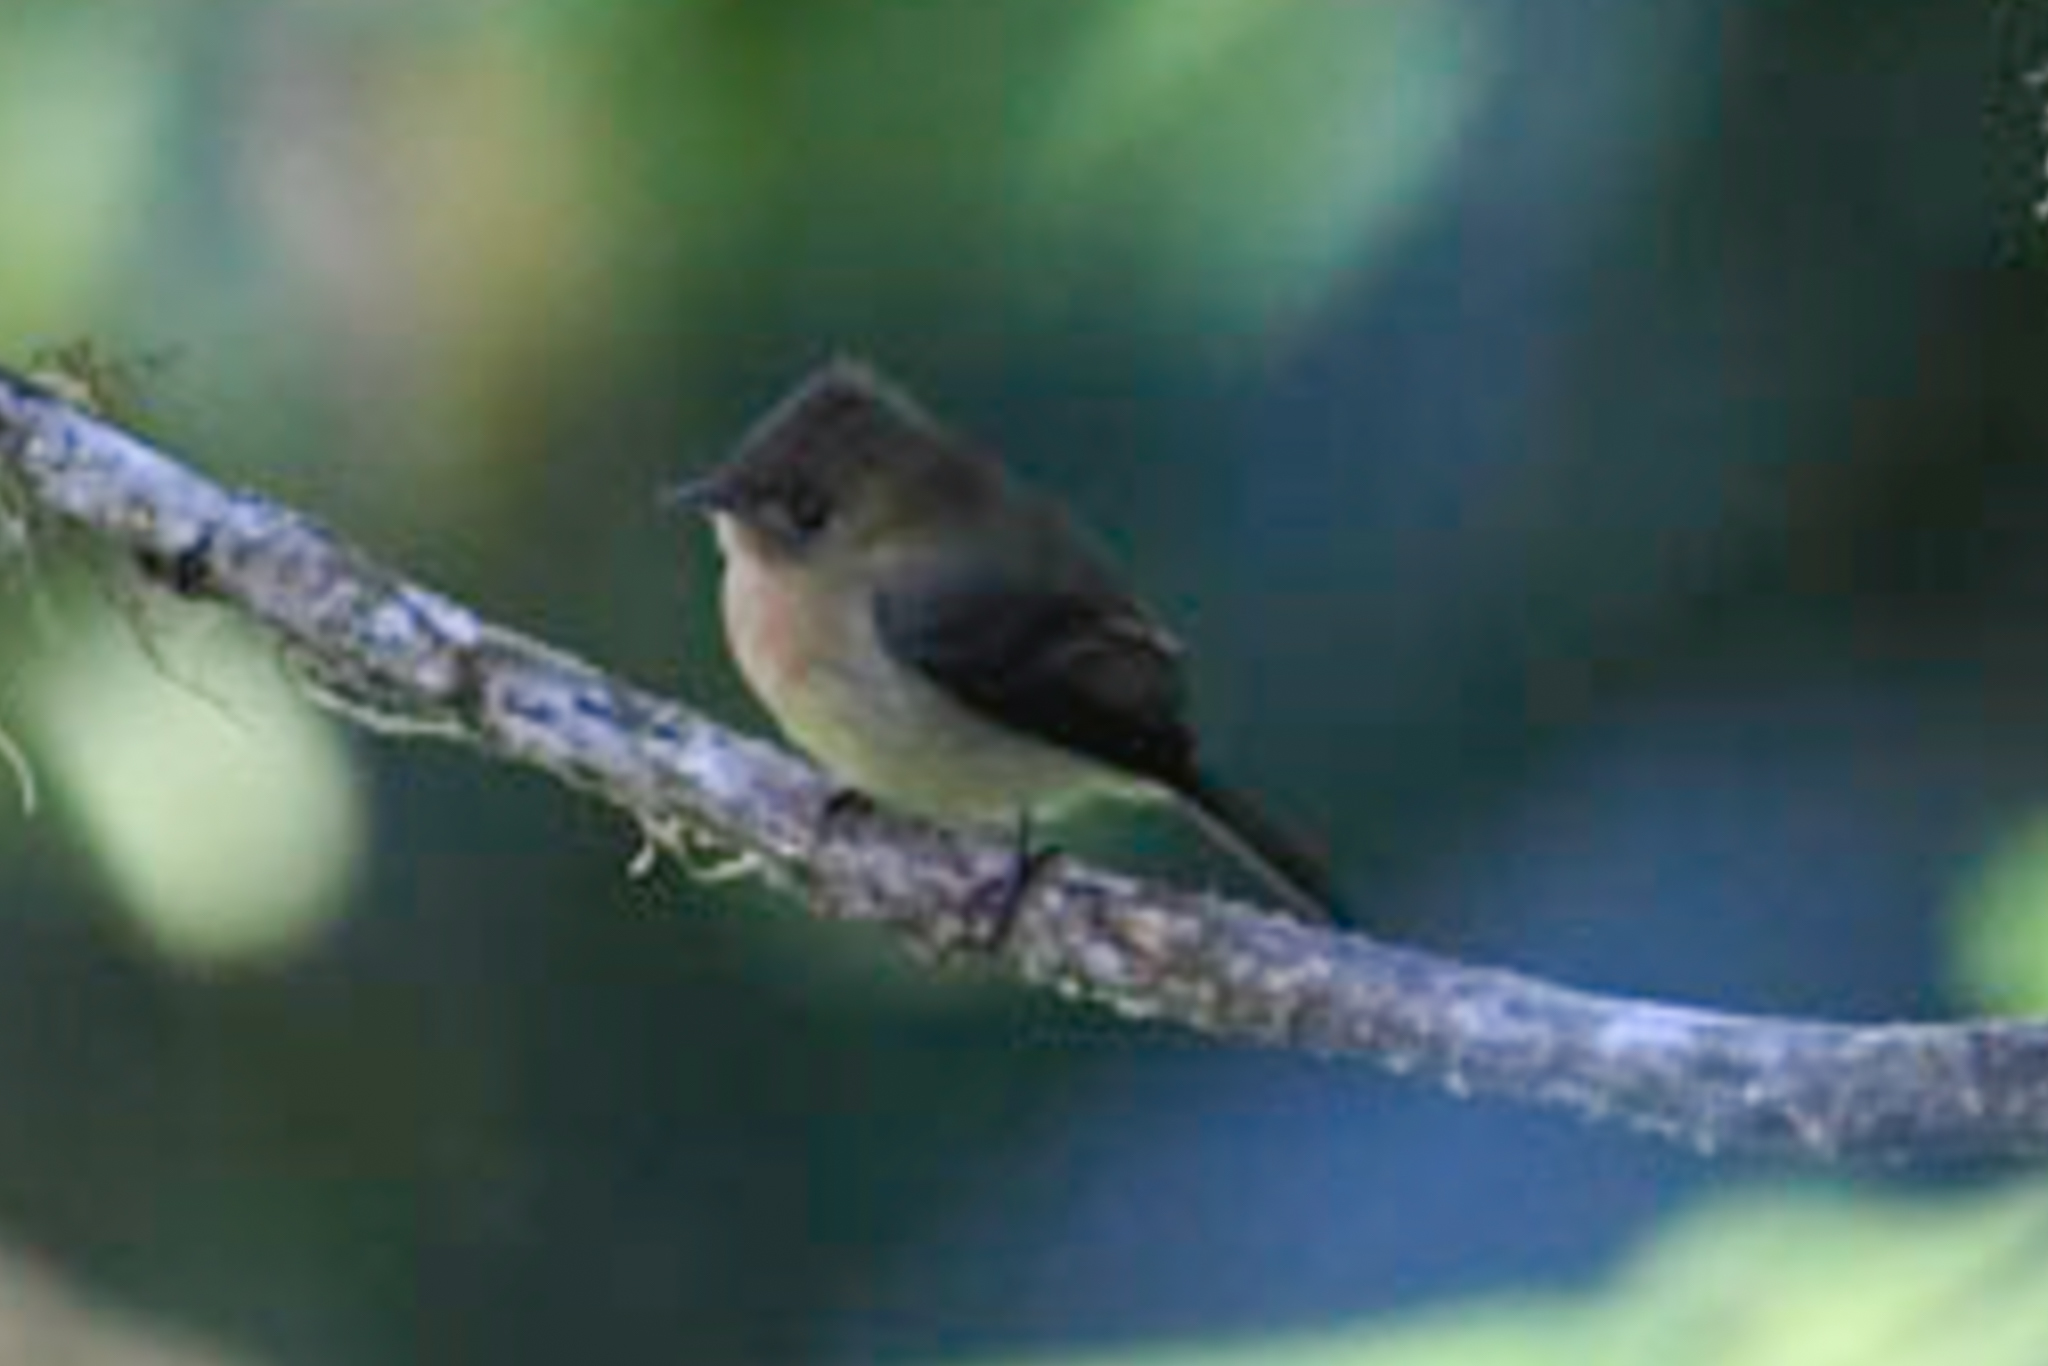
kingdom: Animalia
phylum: Chordata
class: Aves
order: Passeriformes
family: Tyrannidae
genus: Mitrephanes
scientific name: Mitrephanes phaeocercus
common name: Northern tufted flycatcher
